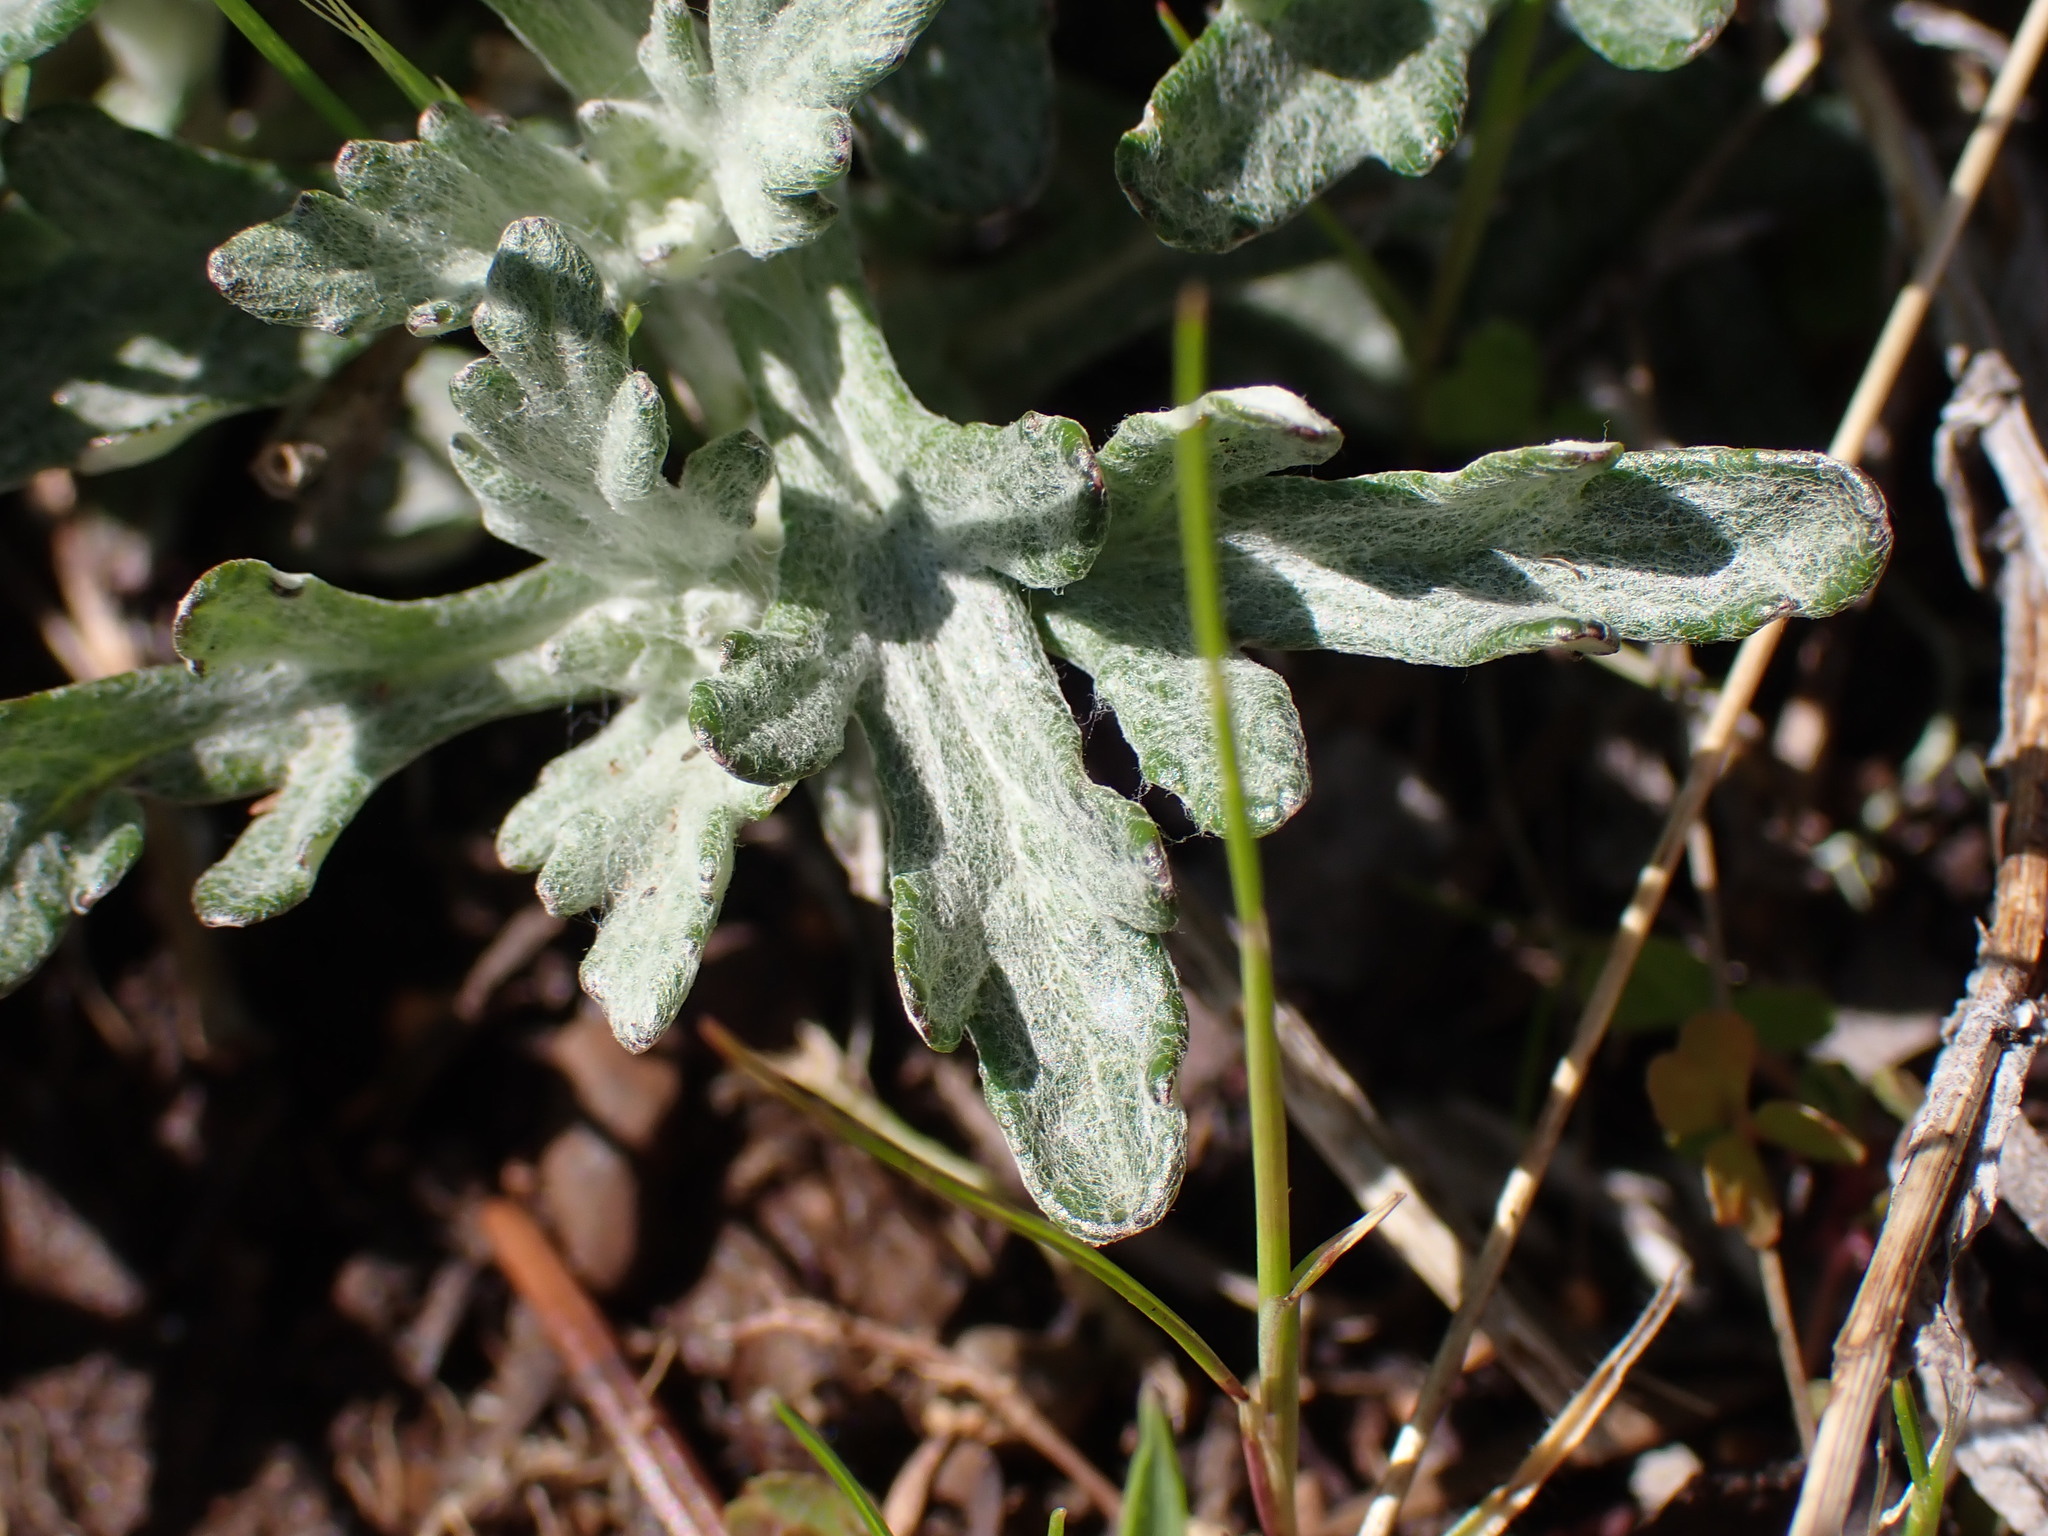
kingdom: Plantae
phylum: Tracheophyta
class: Magnoliopsida
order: Asterales
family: Asteraceae
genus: Eriophyllum
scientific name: Eriophyllum lanatum
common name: Common woolly-sunflower
